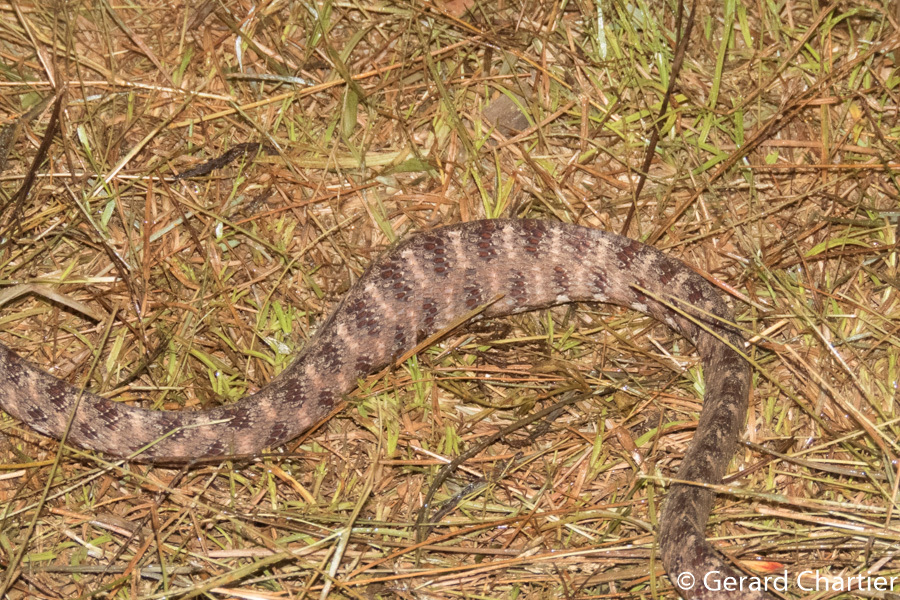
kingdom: Animalia
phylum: Chordata
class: Squamata
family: Colubridae
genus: Boiga
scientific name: Boiga siamensis
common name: Eyed cat snake
